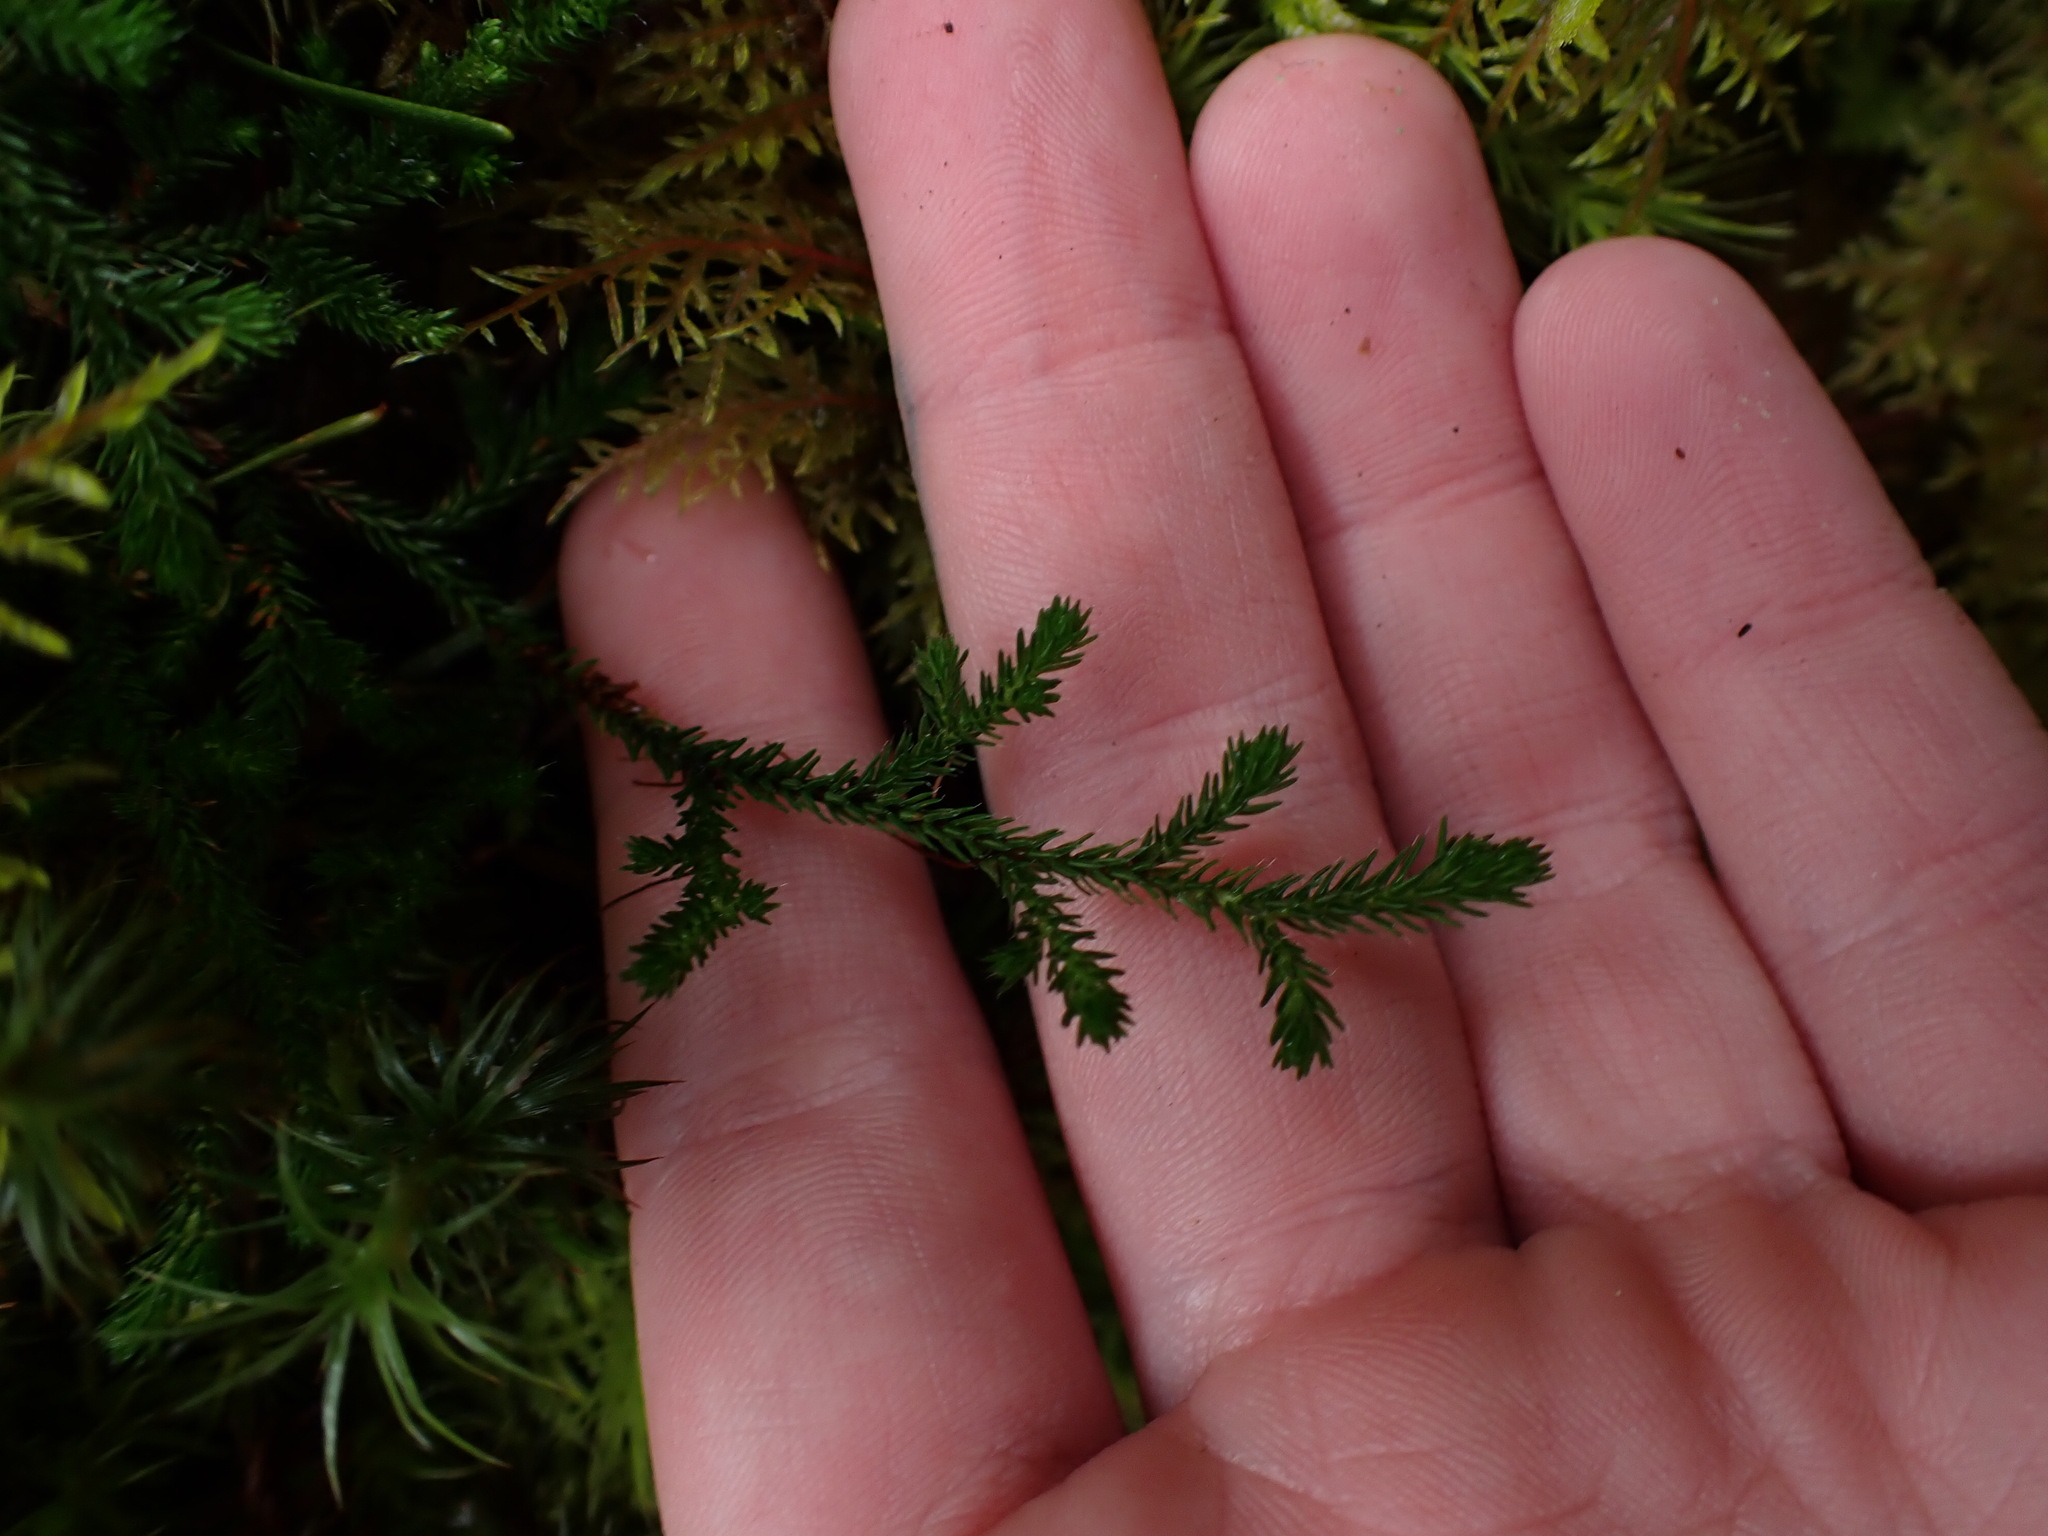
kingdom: Plantae
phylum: Tracheophyta
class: Lycopodiopsida
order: Selaginellales
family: Selaginellaceae
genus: Selaginella
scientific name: Selaginella wallacei
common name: Wallace's selaginella
